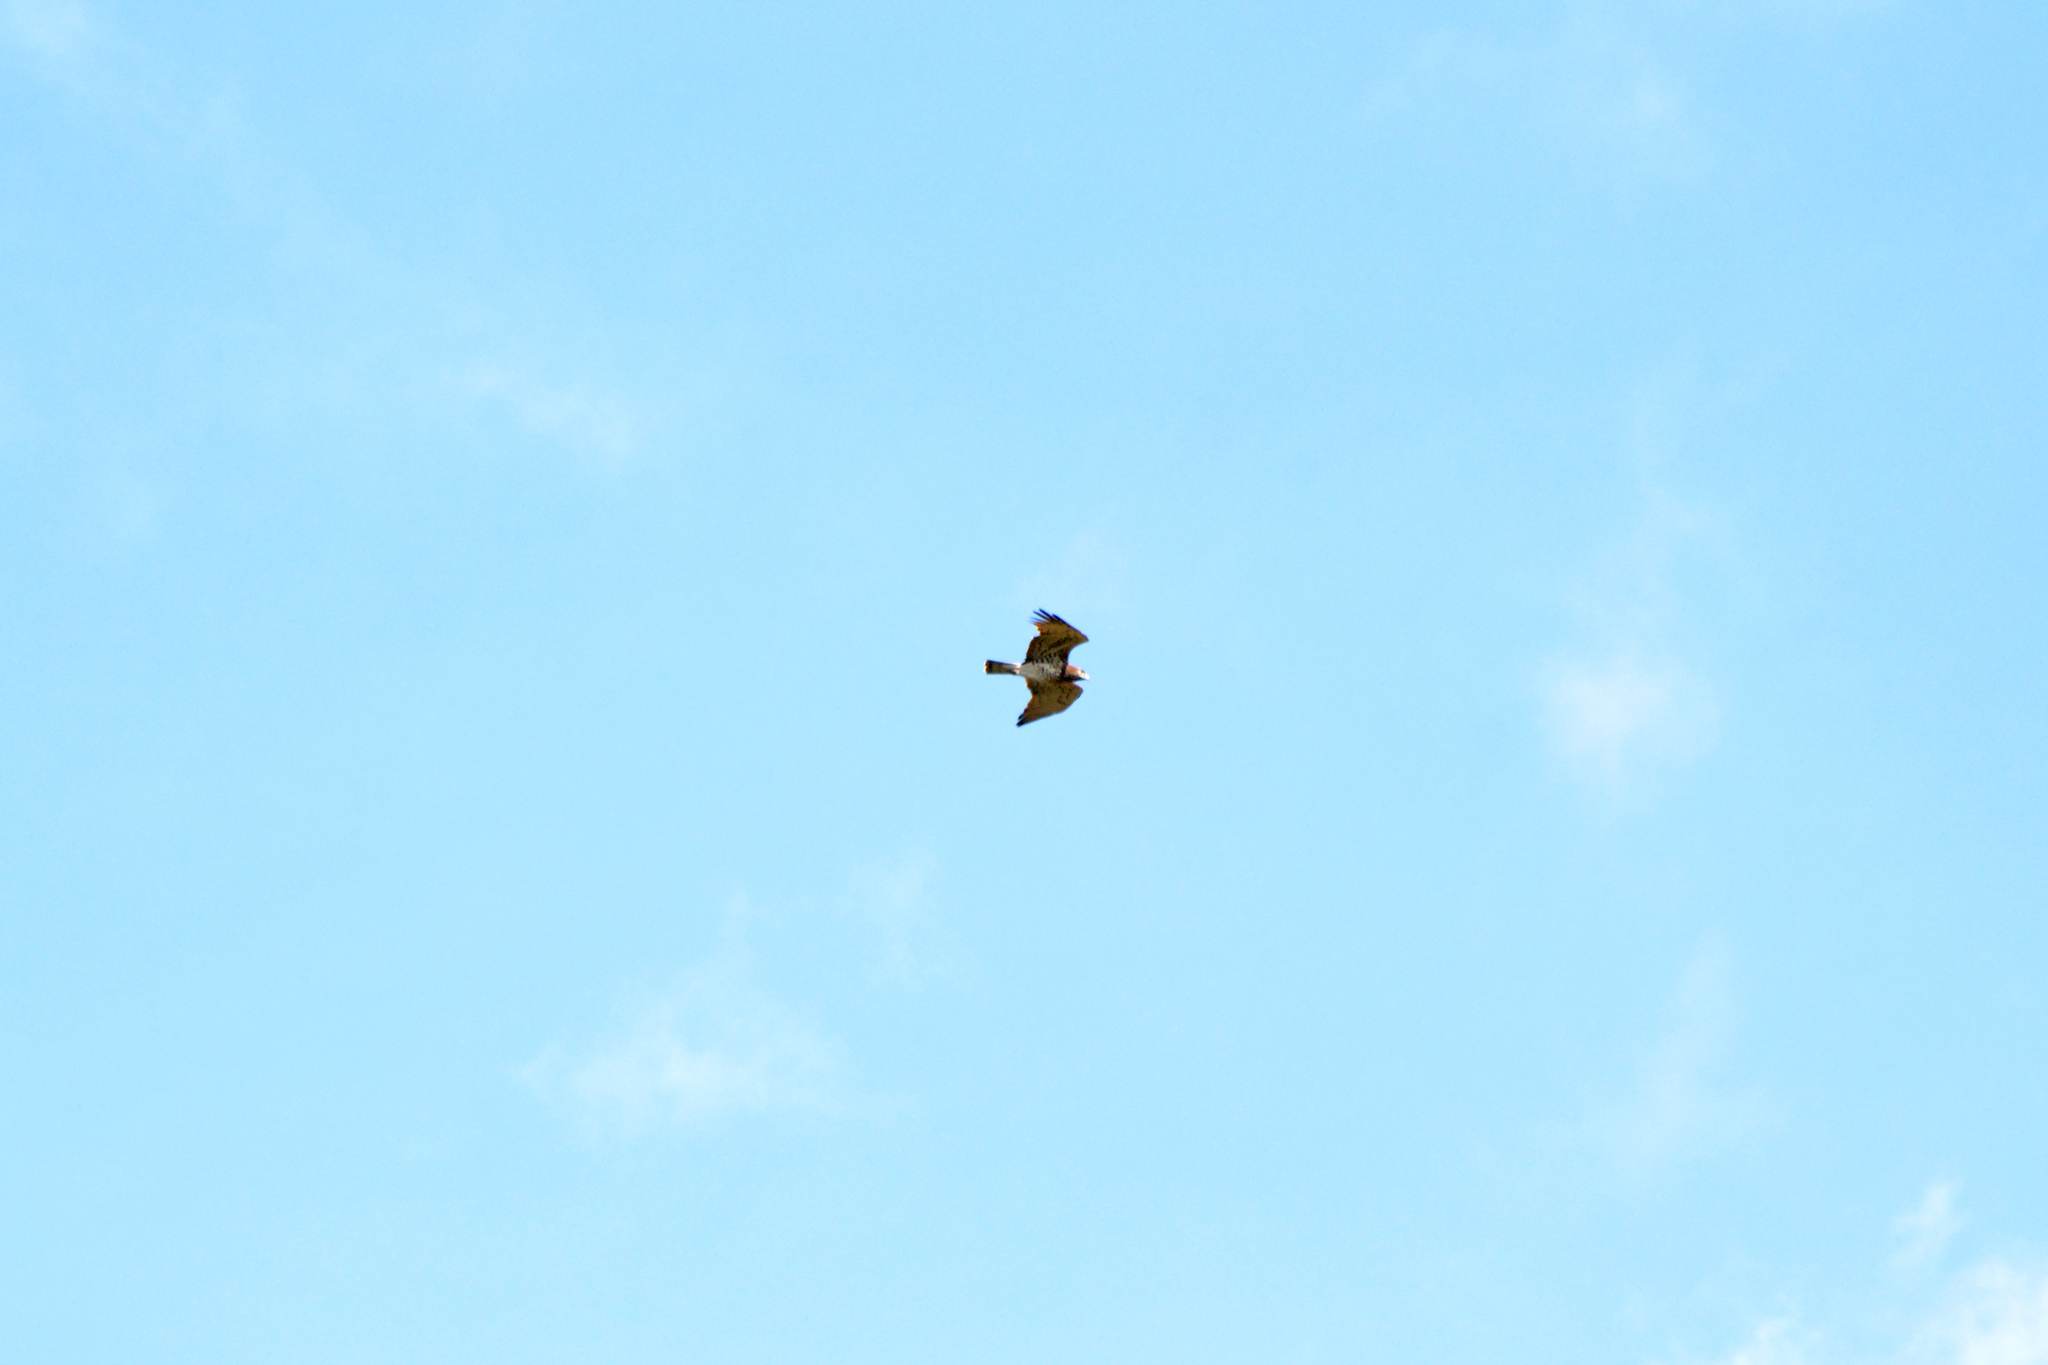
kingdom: Animalia
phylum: Chordata
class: Aves
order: Accipitriformes
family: Accipitridae
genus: Circaetus
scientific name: Circaetus gallicus
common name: Short-toed snake eagle
